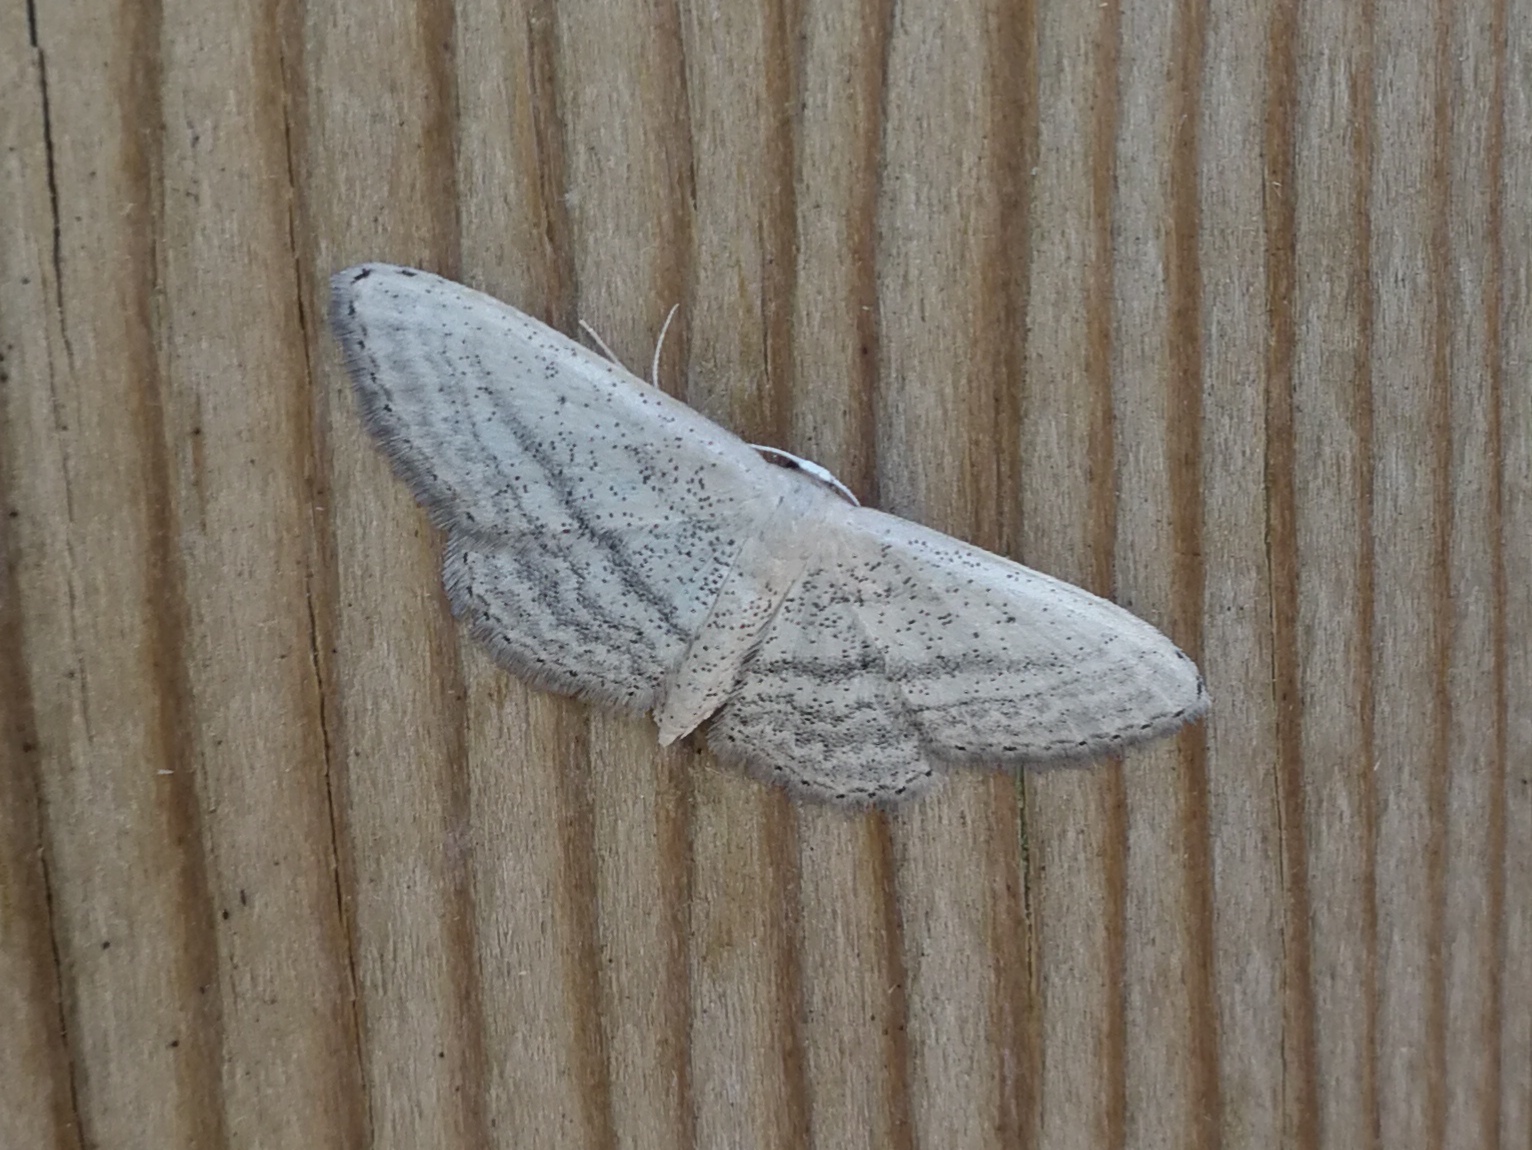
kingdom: Animalia
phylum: Arthropoda
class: Insecta
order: Lepidoptera
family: Geometridae
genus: Idaea
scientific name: Idaea mediaria
